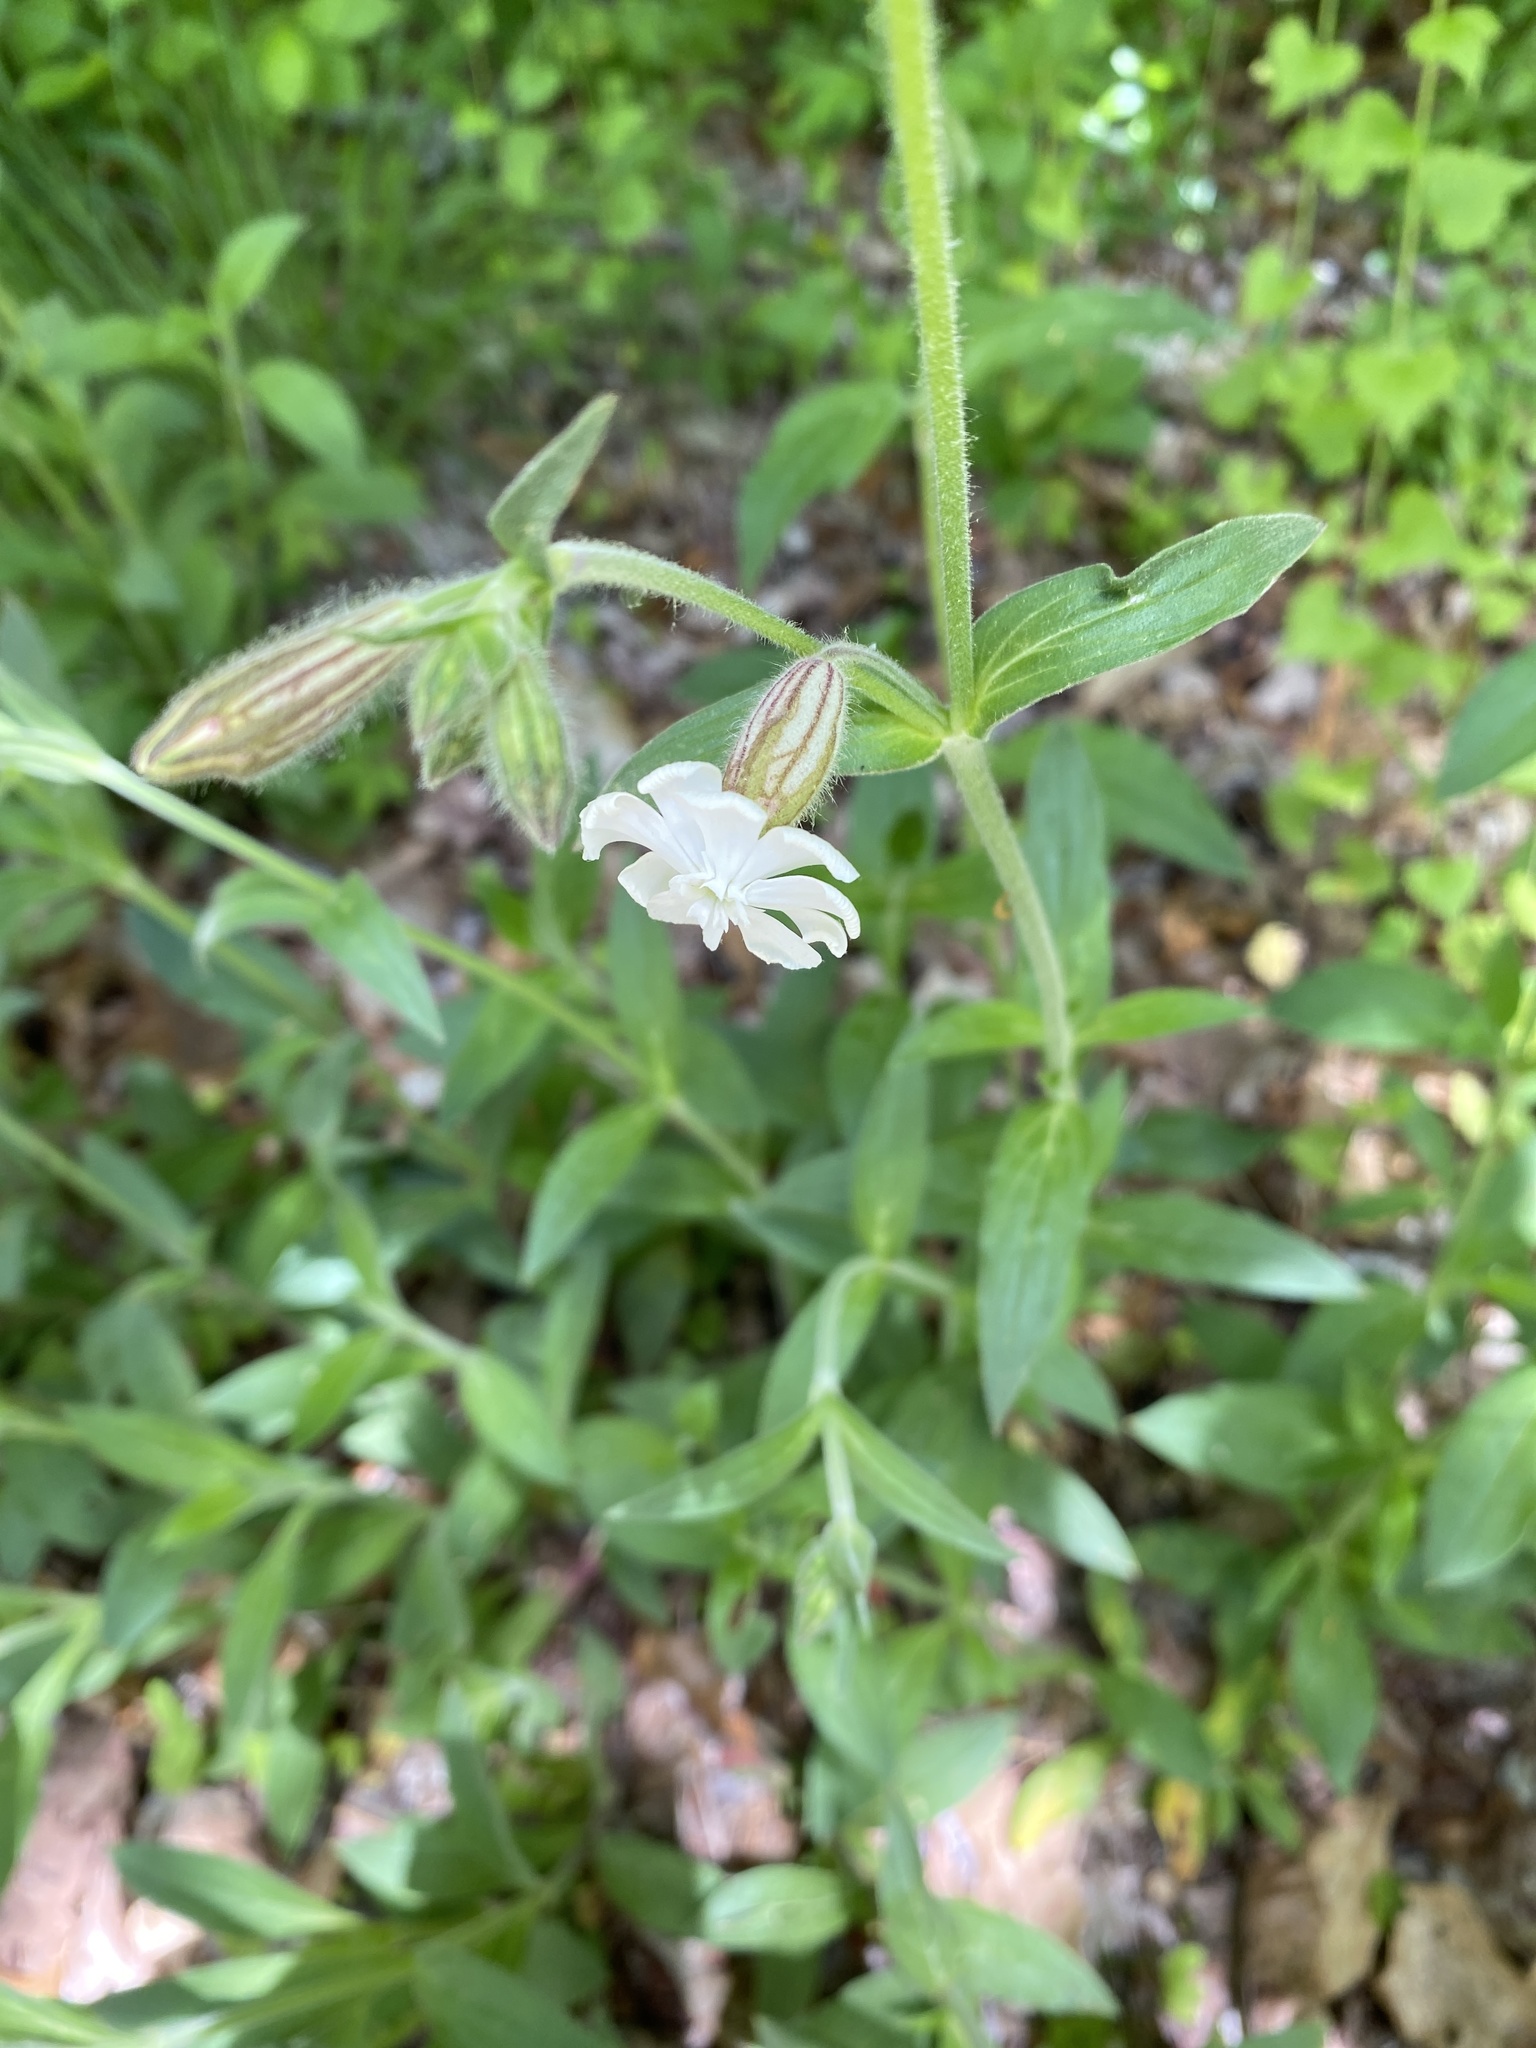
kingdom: Plantae
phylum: Tracheophyta
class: Magnoliopsida
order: Caryophyllales
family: Caryophyllaceae
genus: Silene
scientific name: Silene latifolia
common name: White campion
